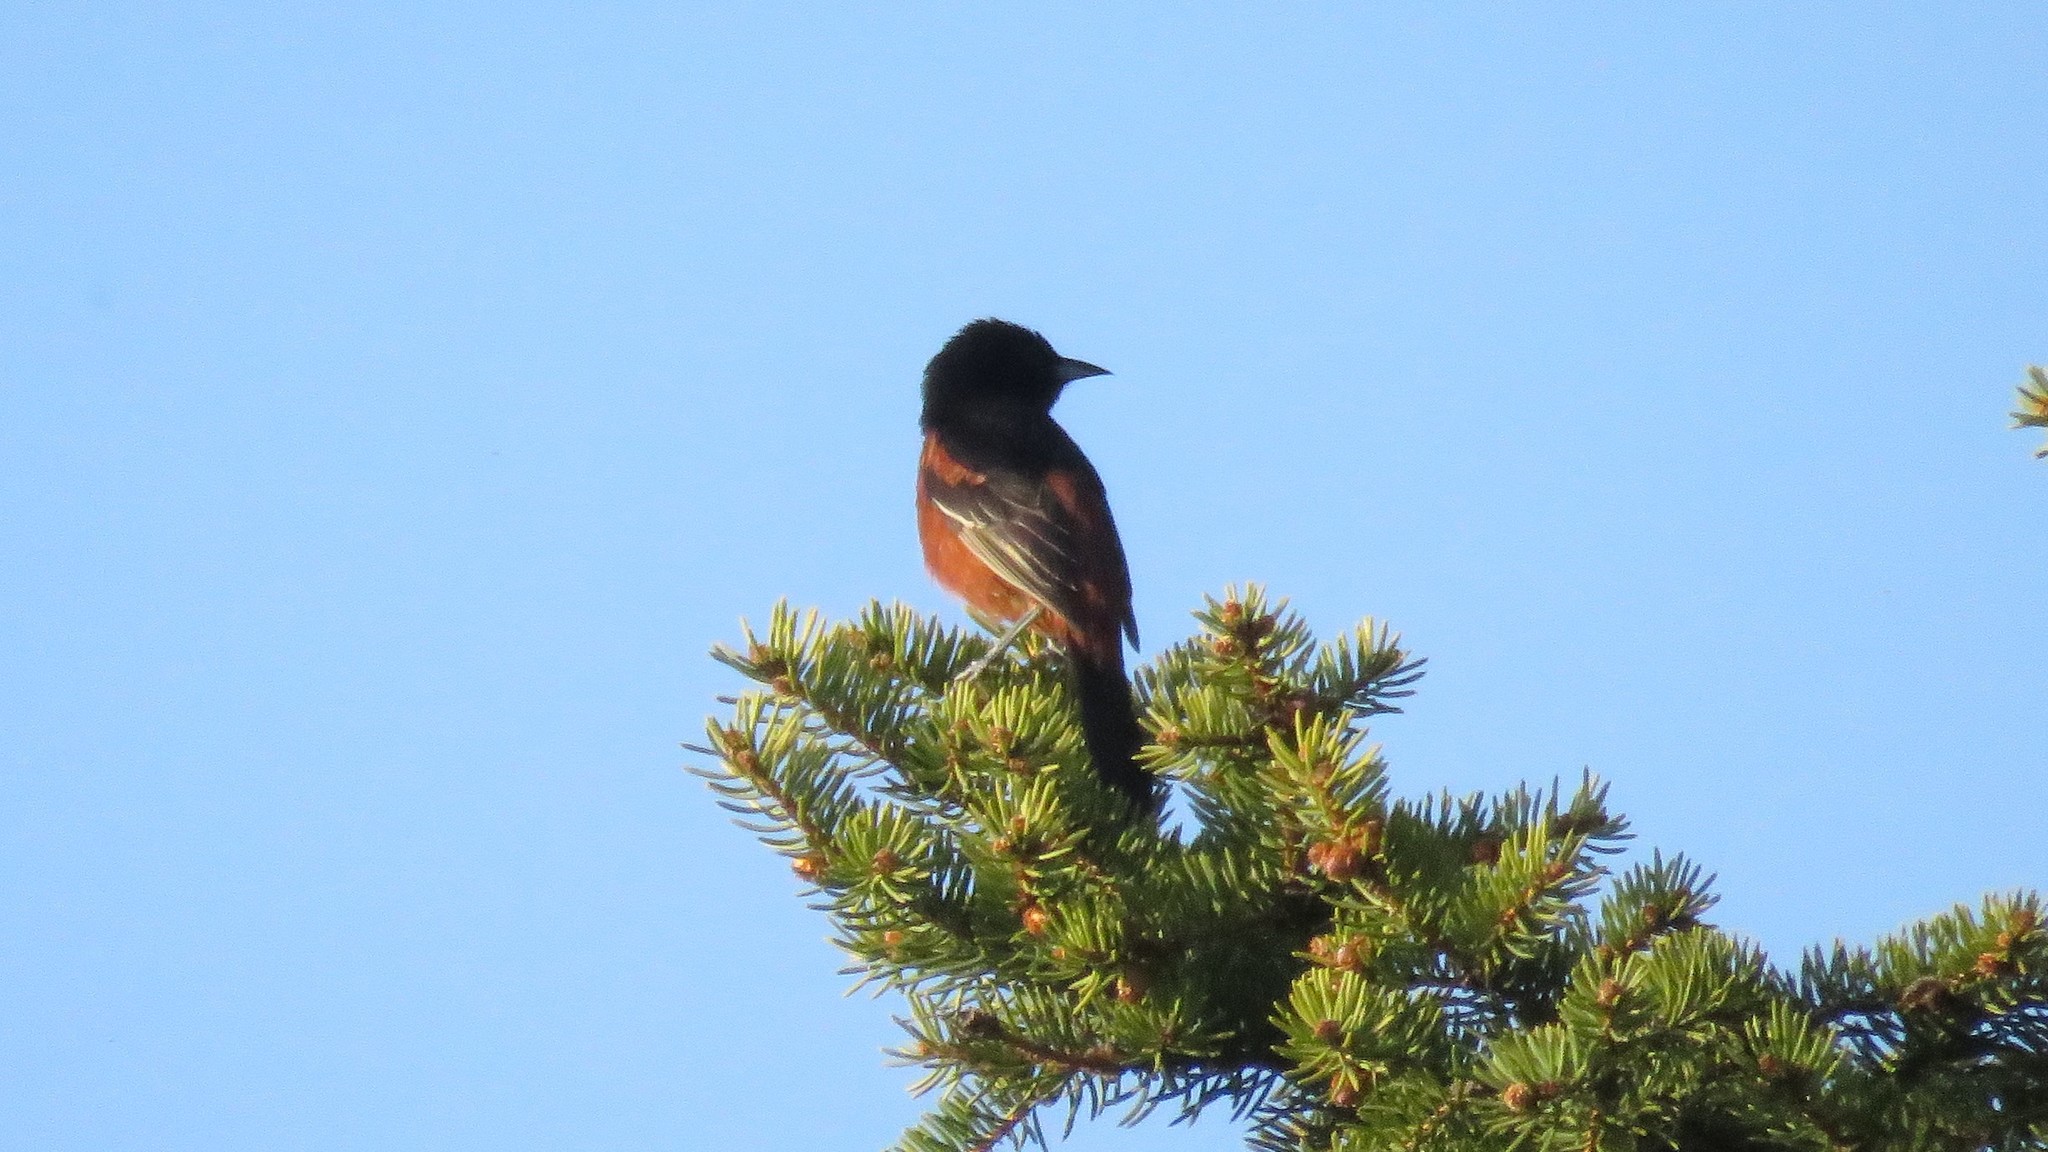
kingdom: Animalia
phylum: Chordata
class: Aves
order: Passeriformes
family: Icteridae
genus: Icterus
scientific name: Icterus spurius
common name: Orchard oriole
